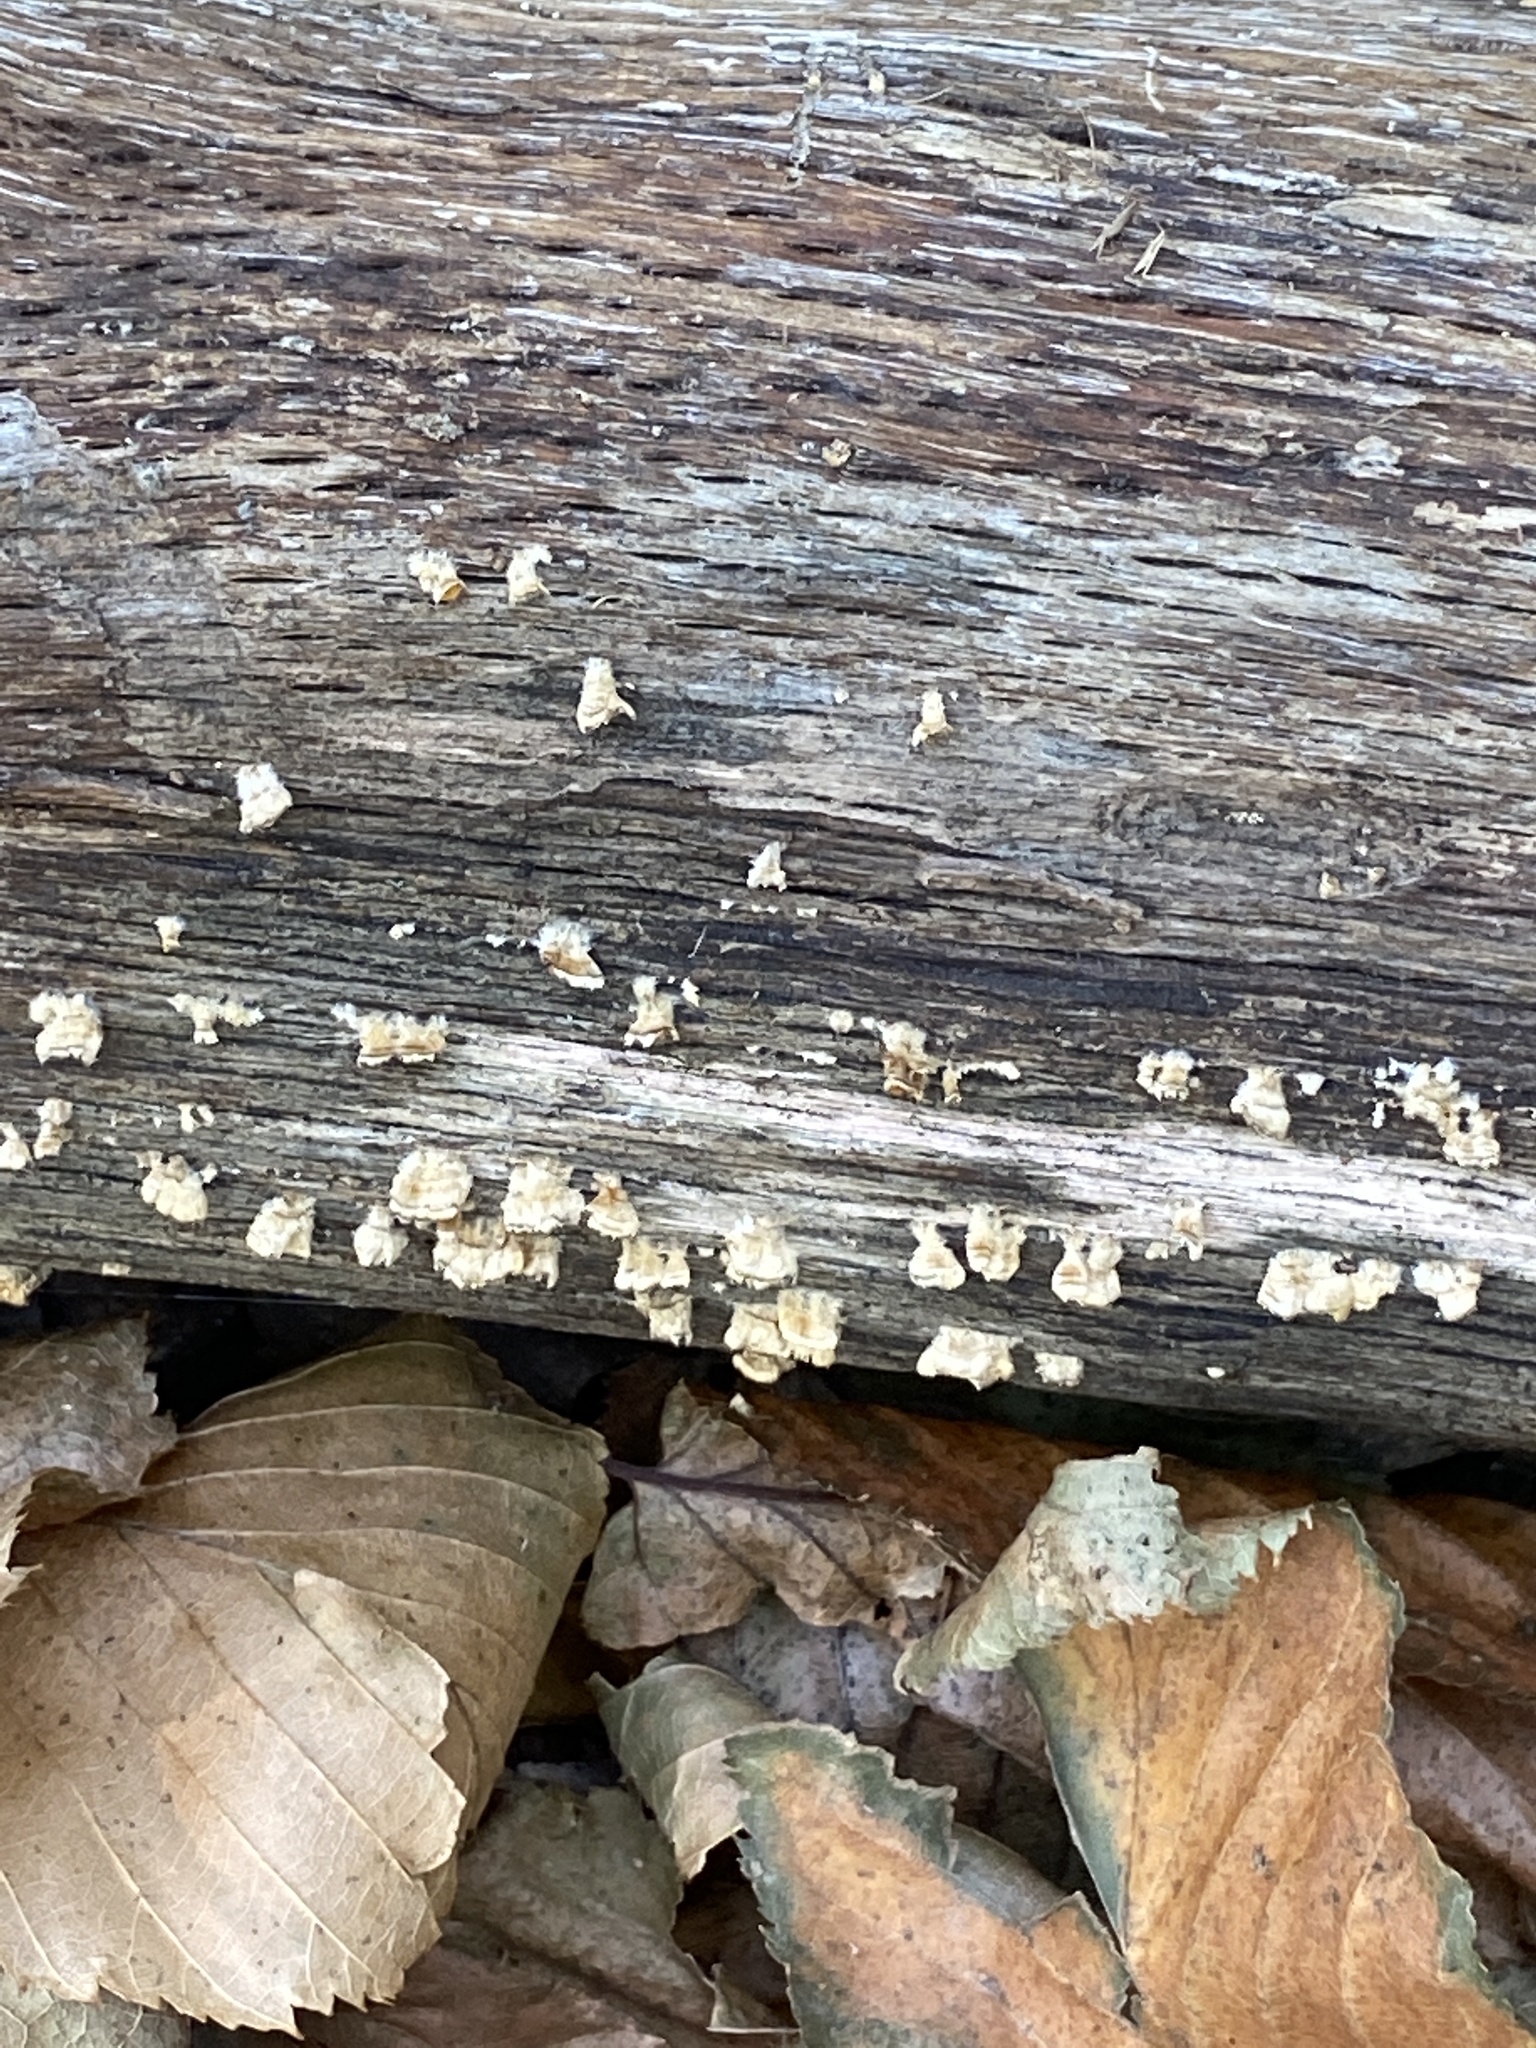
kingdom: Fungi
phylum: Basidiomycota
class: Agaricomycetes
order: Russulales
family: Stereaceae
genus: Stereum
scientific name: Stereum complicatum
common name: Crowded parchment
